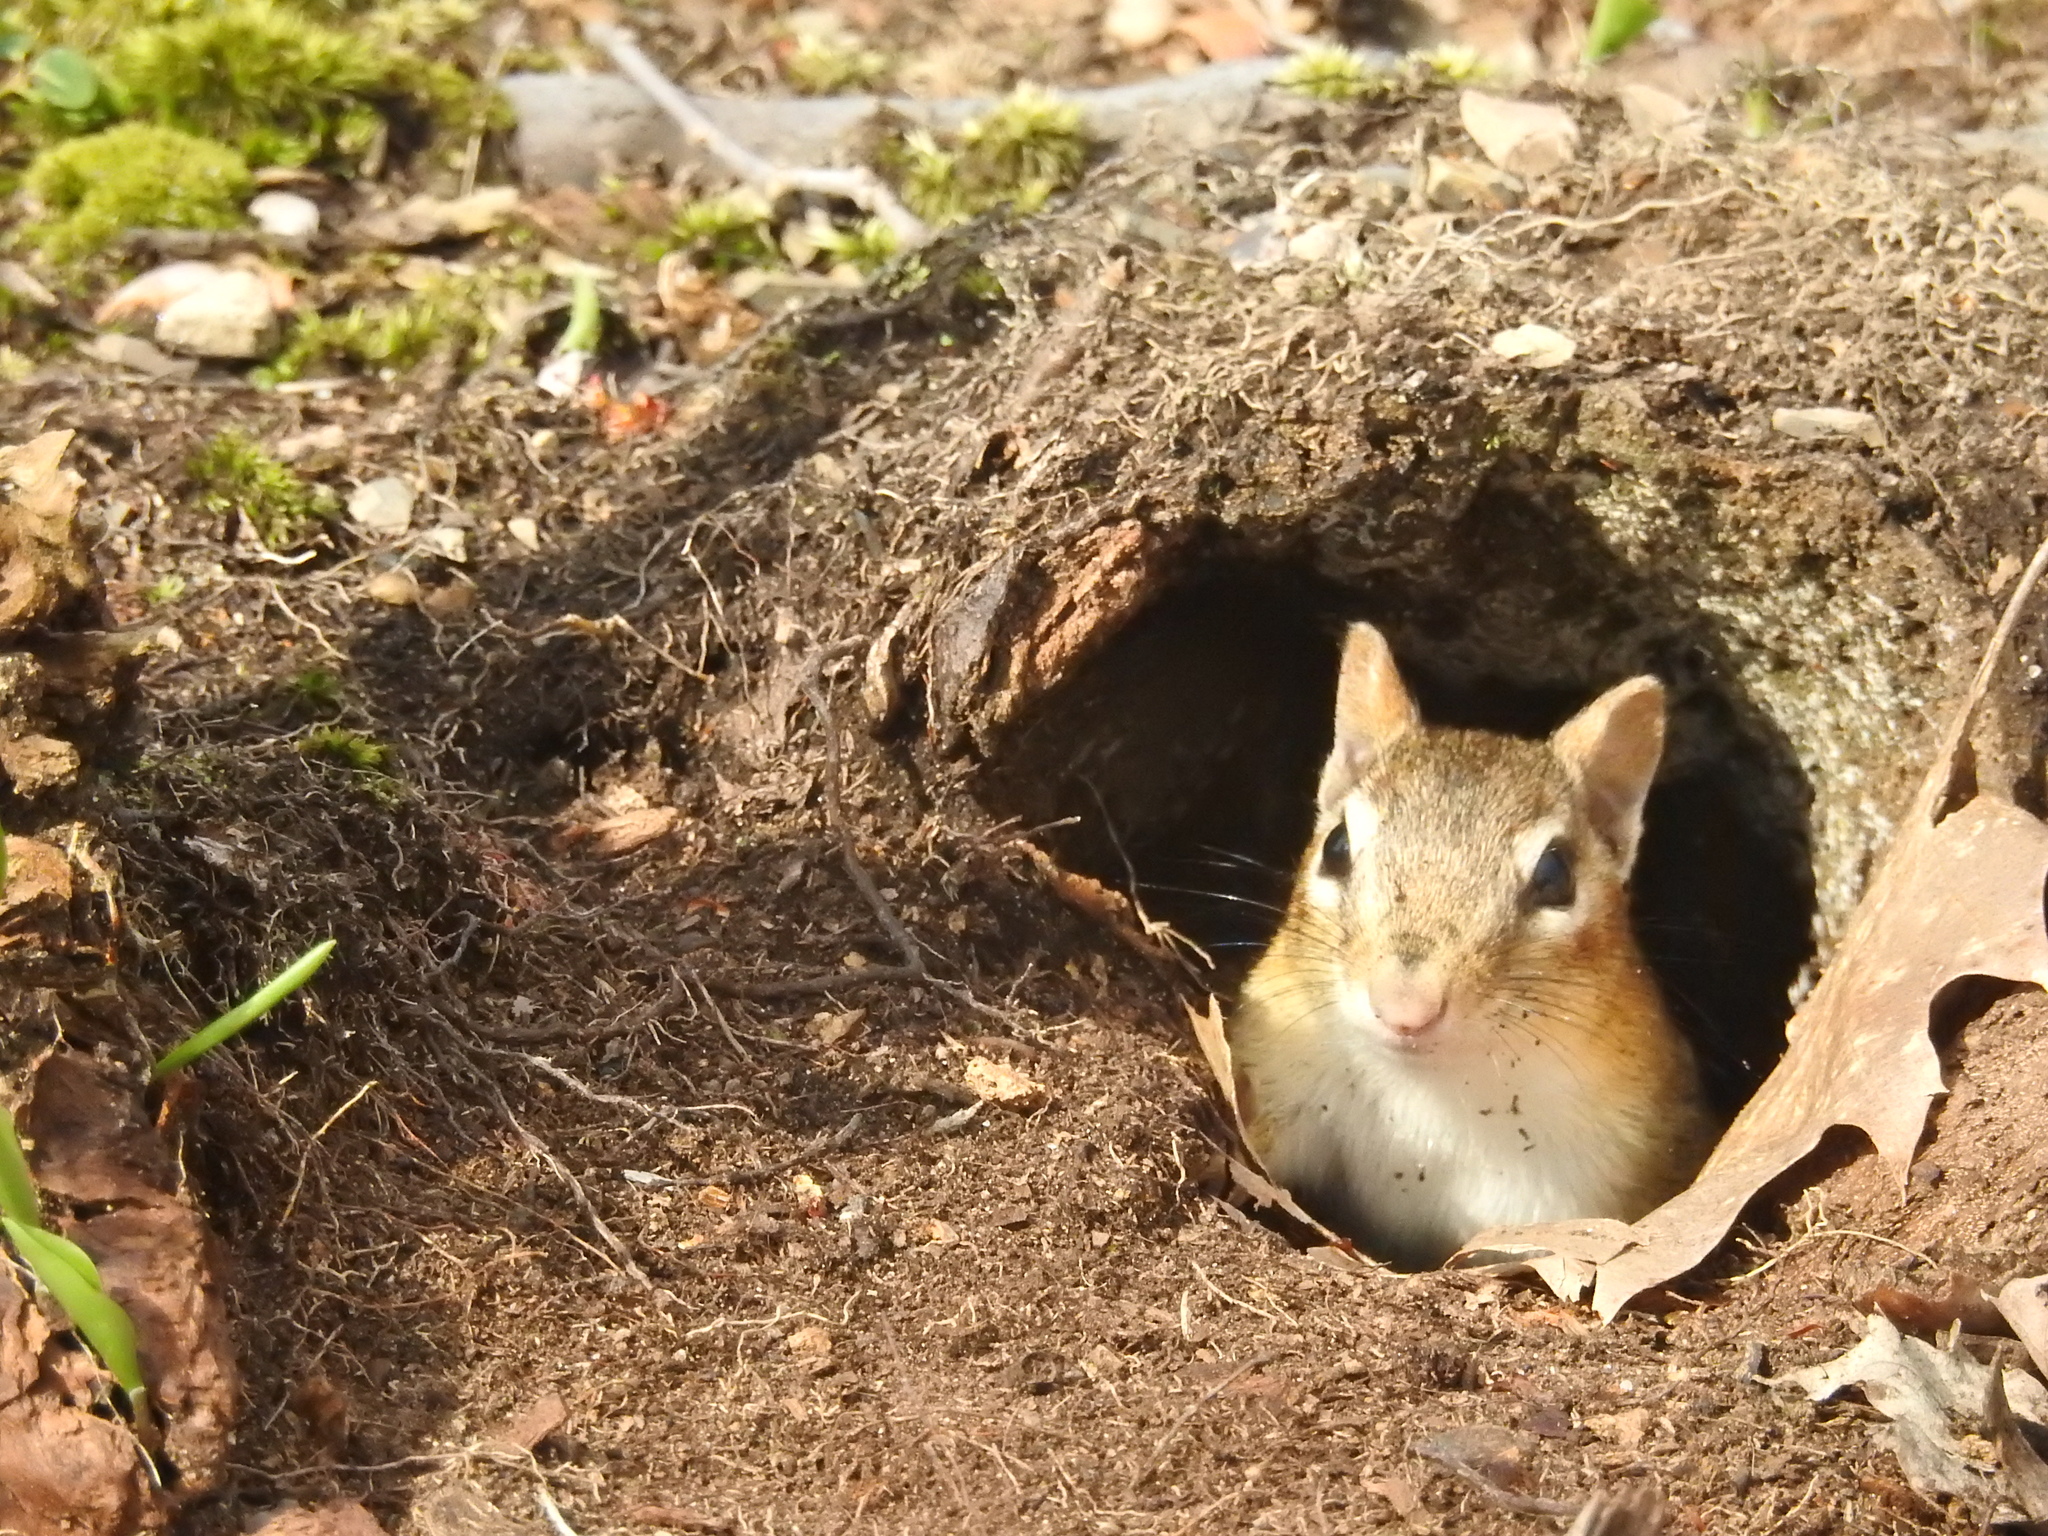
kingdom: Animalia
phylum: Chordata
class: Mammalia
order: Rodentia
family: Sciuridae
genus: Tamias
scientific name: Tamias striatus
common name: Eastern chipmunk
